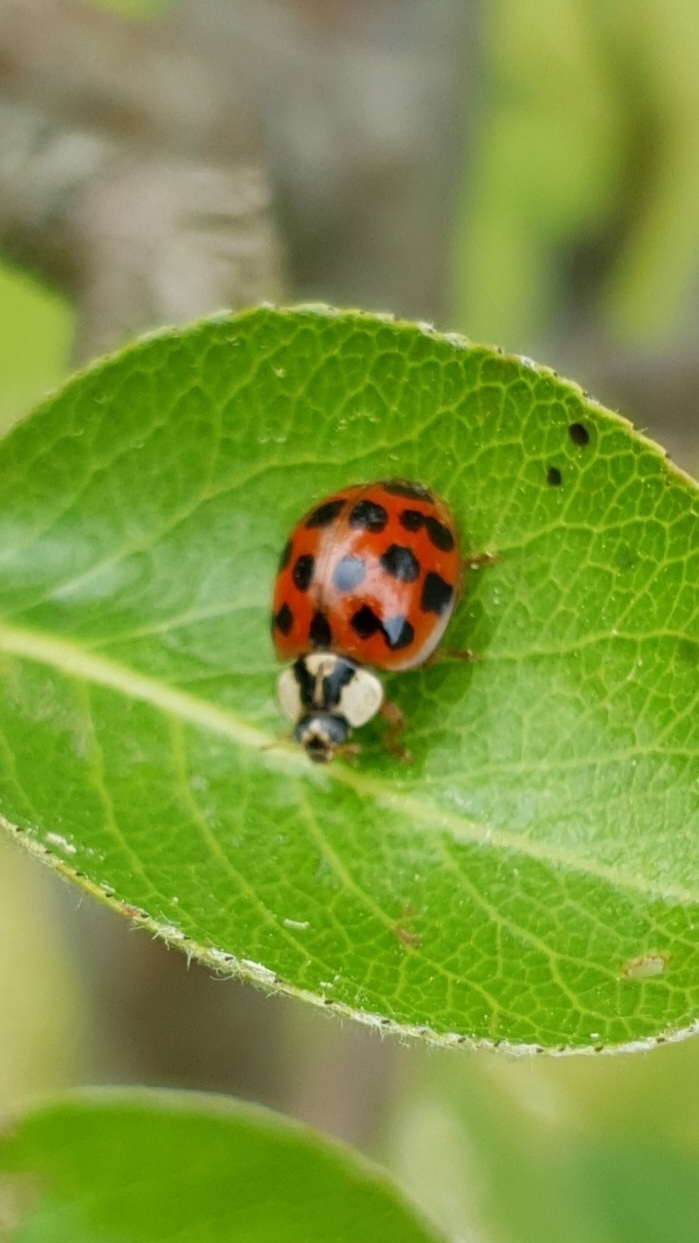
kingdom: Animalia
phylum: Arthropoda
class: Insecta
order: Coleoptera
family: Coccinellidae
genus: Harmonia
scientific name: Harmonia axyridis
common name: Harlequin ladybird
